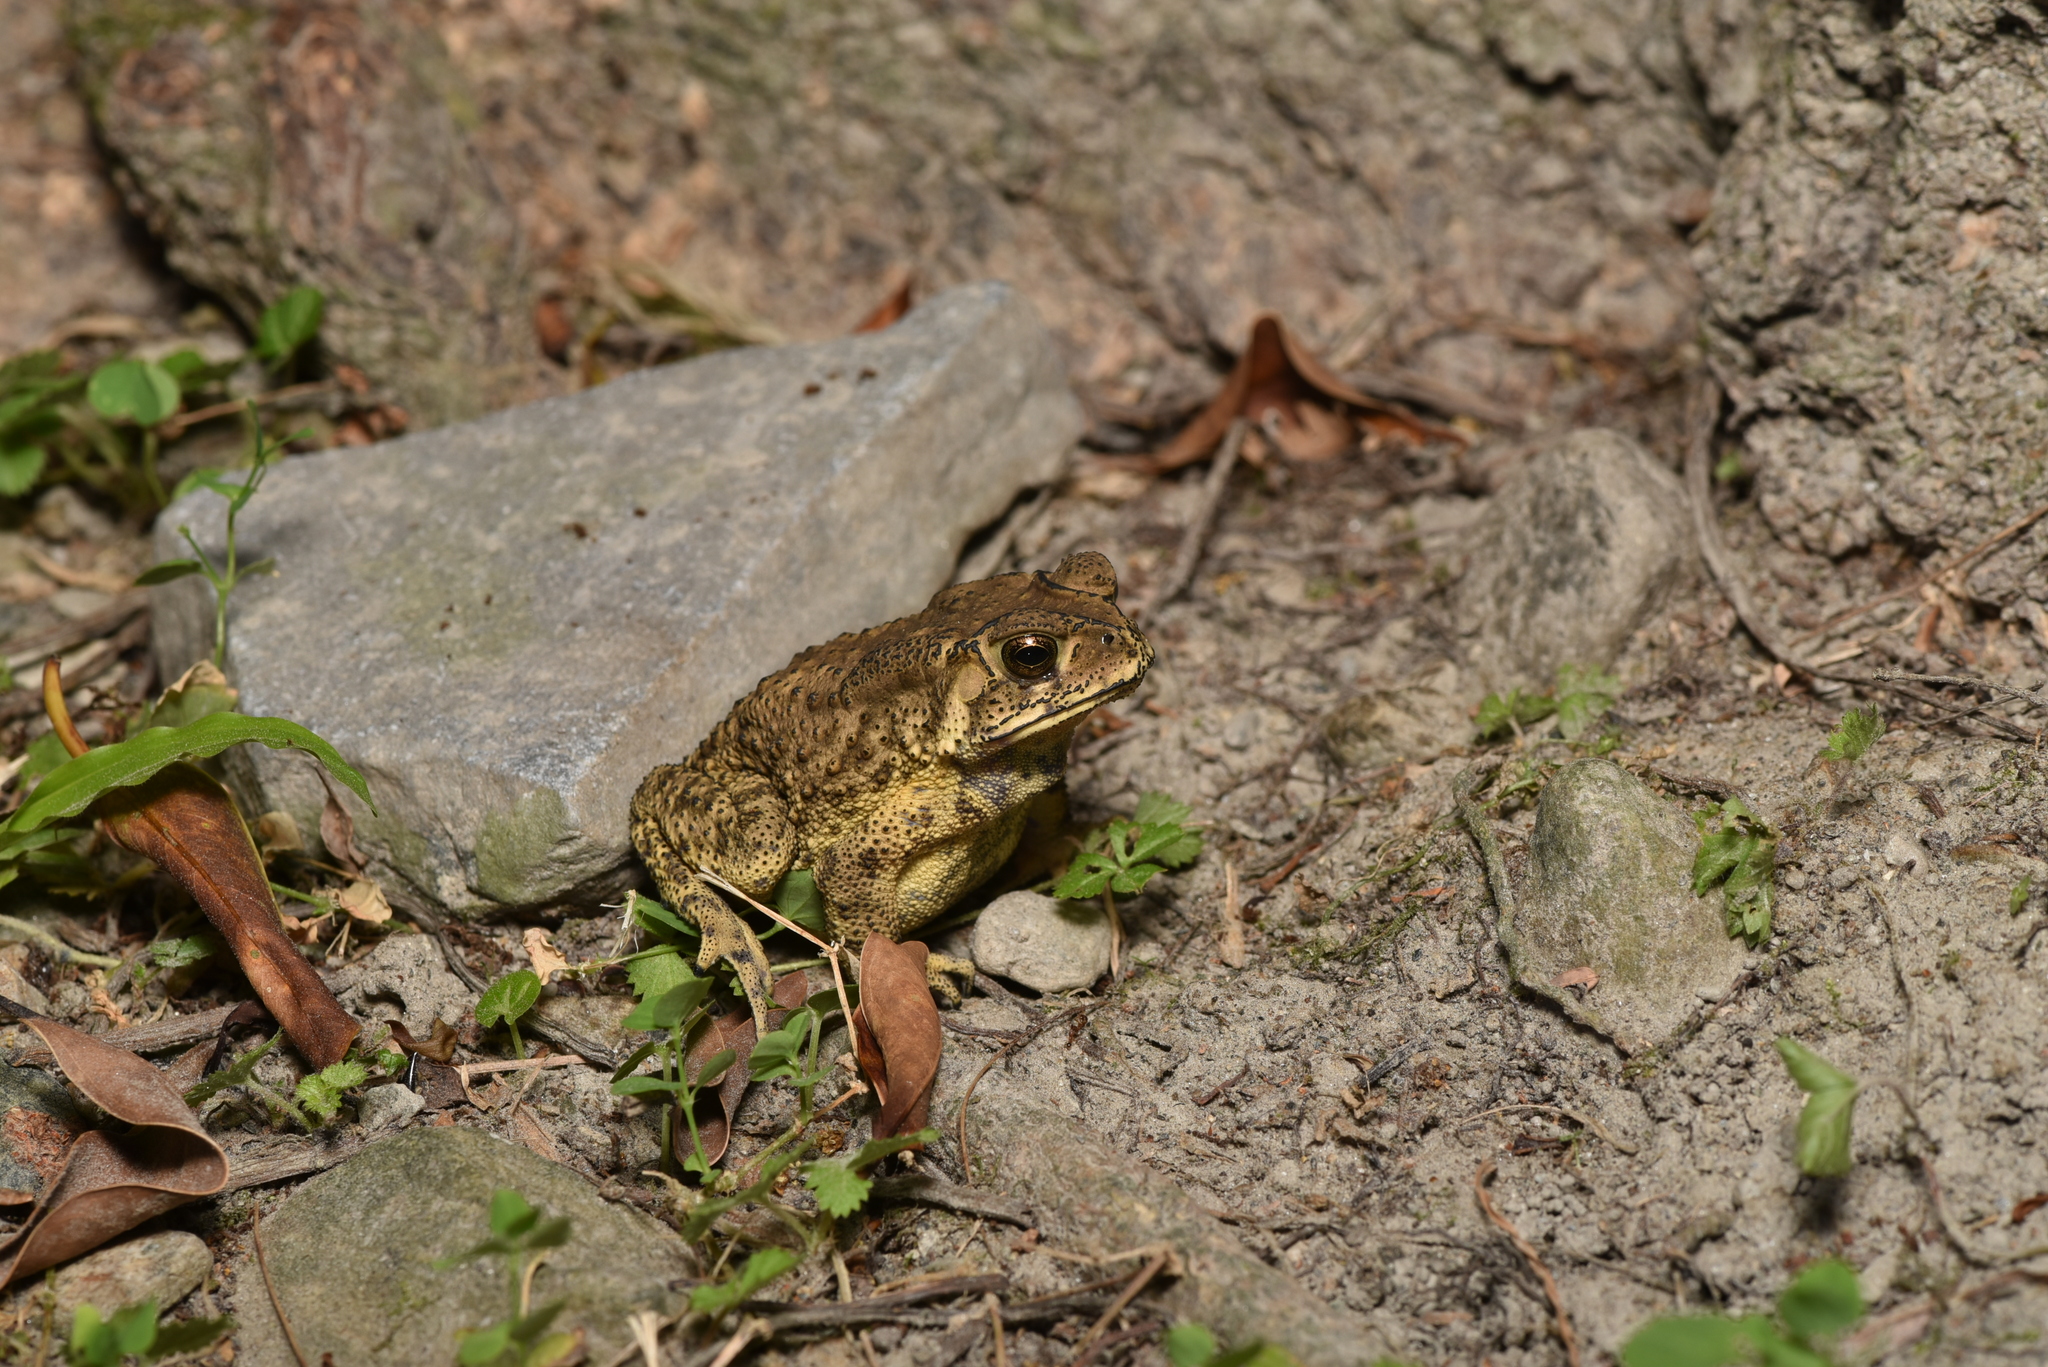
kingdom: Animalia
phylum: Chordata
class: Amphibia
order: Anura
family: Bufonidae
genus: Duttaphrynus
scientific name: Duttaphrynus melanostictus
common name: Common sunda toad
